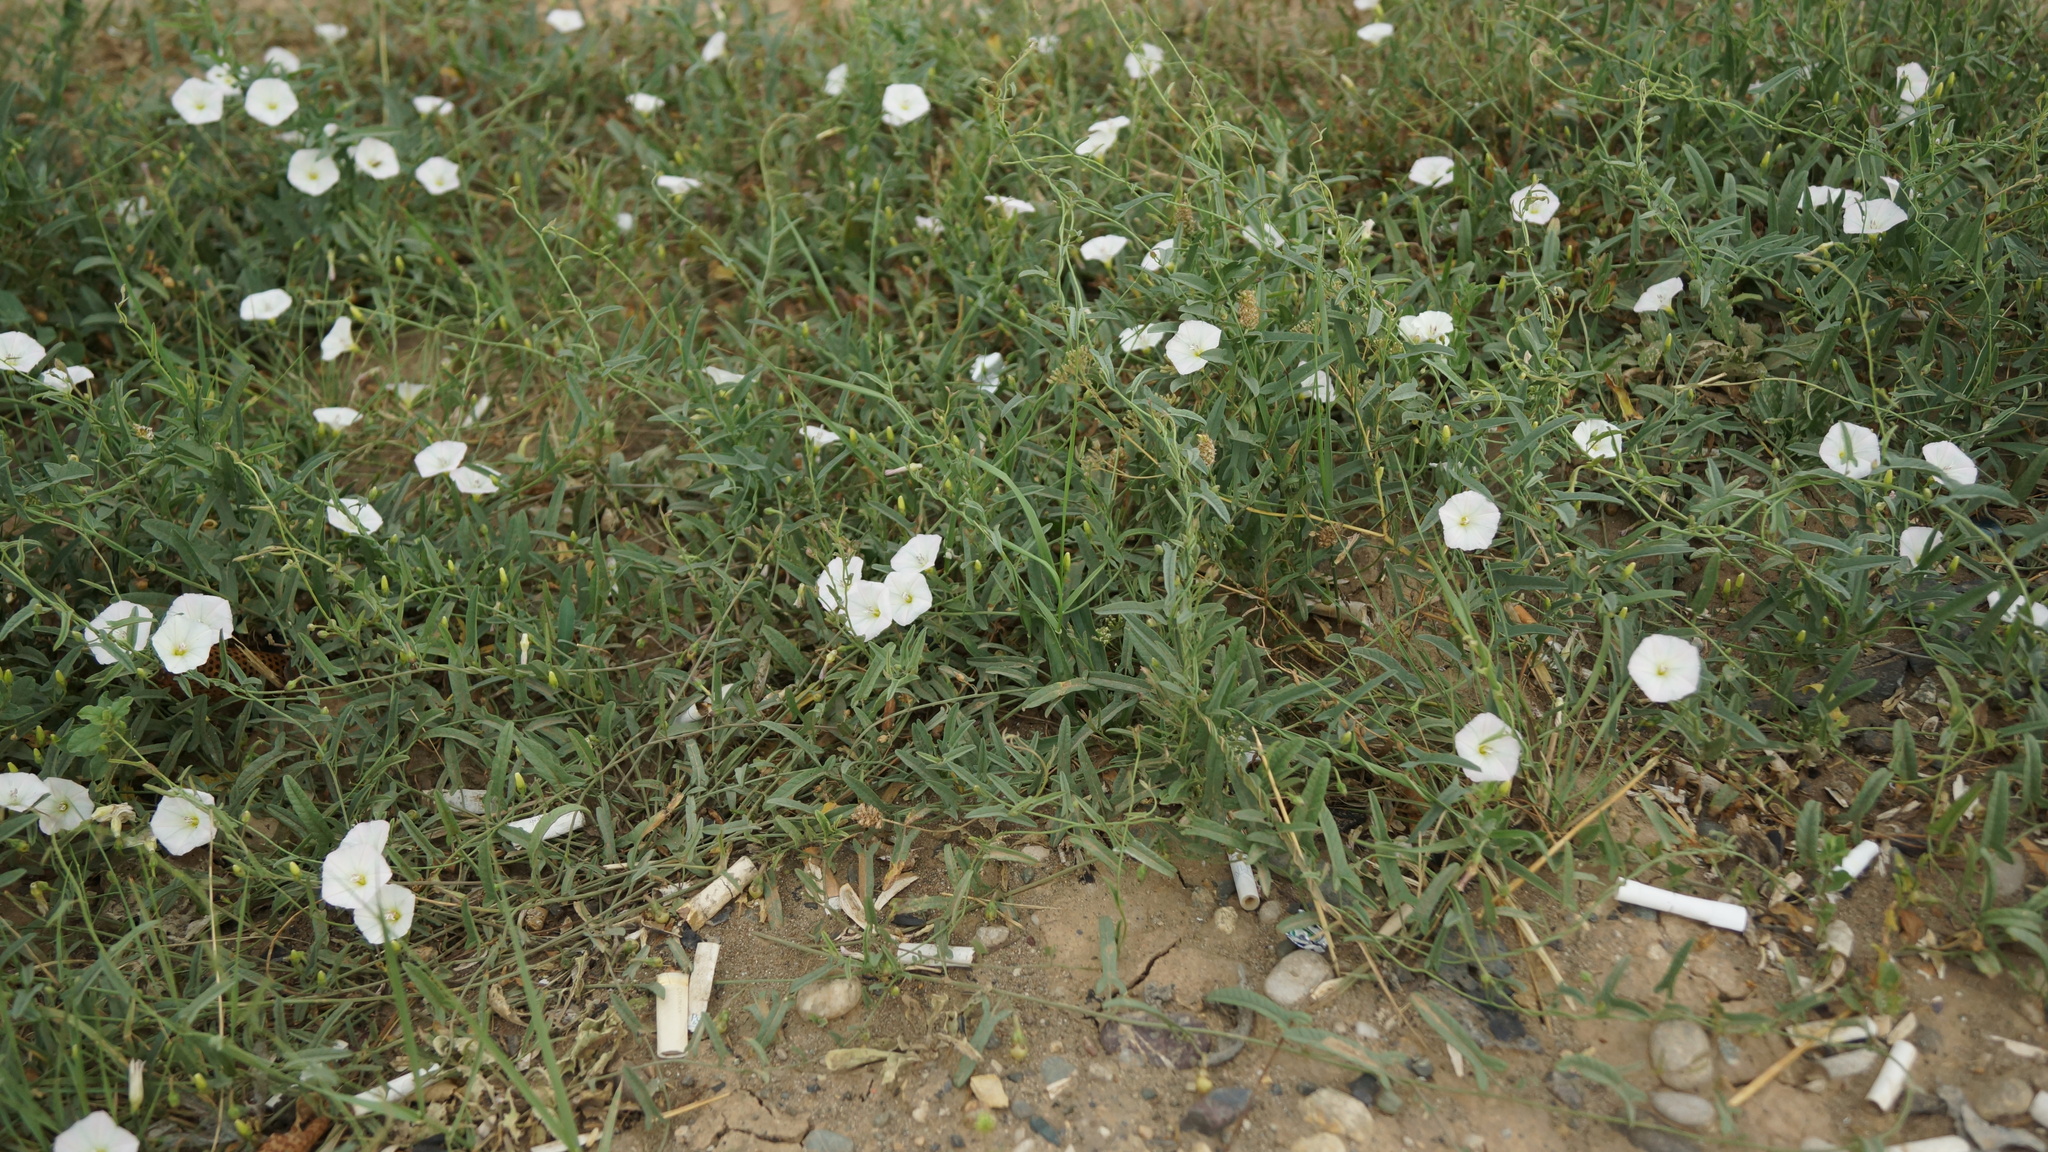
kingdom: Plantae
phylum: Tracheophyta
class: Magnoliopsida
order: Solanales
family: Convolvulaceae
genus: Convolvulus
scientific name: Convolvulus arvensis
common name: Field bindweed
